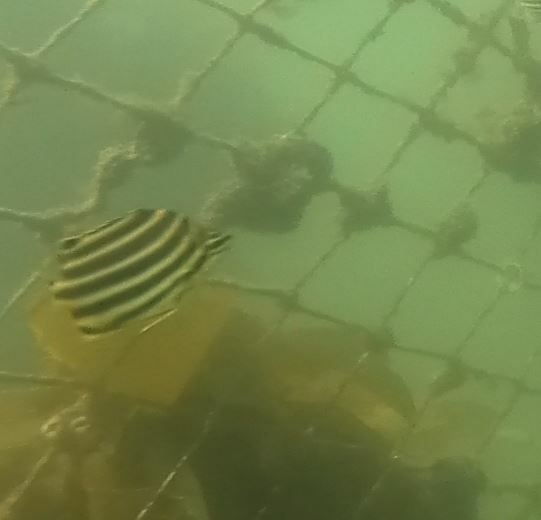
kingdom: Animalia
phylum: Chordata
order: Perciformes
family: Kyphosidae
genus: Microcanthus
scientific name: Microcanthus joyceae
